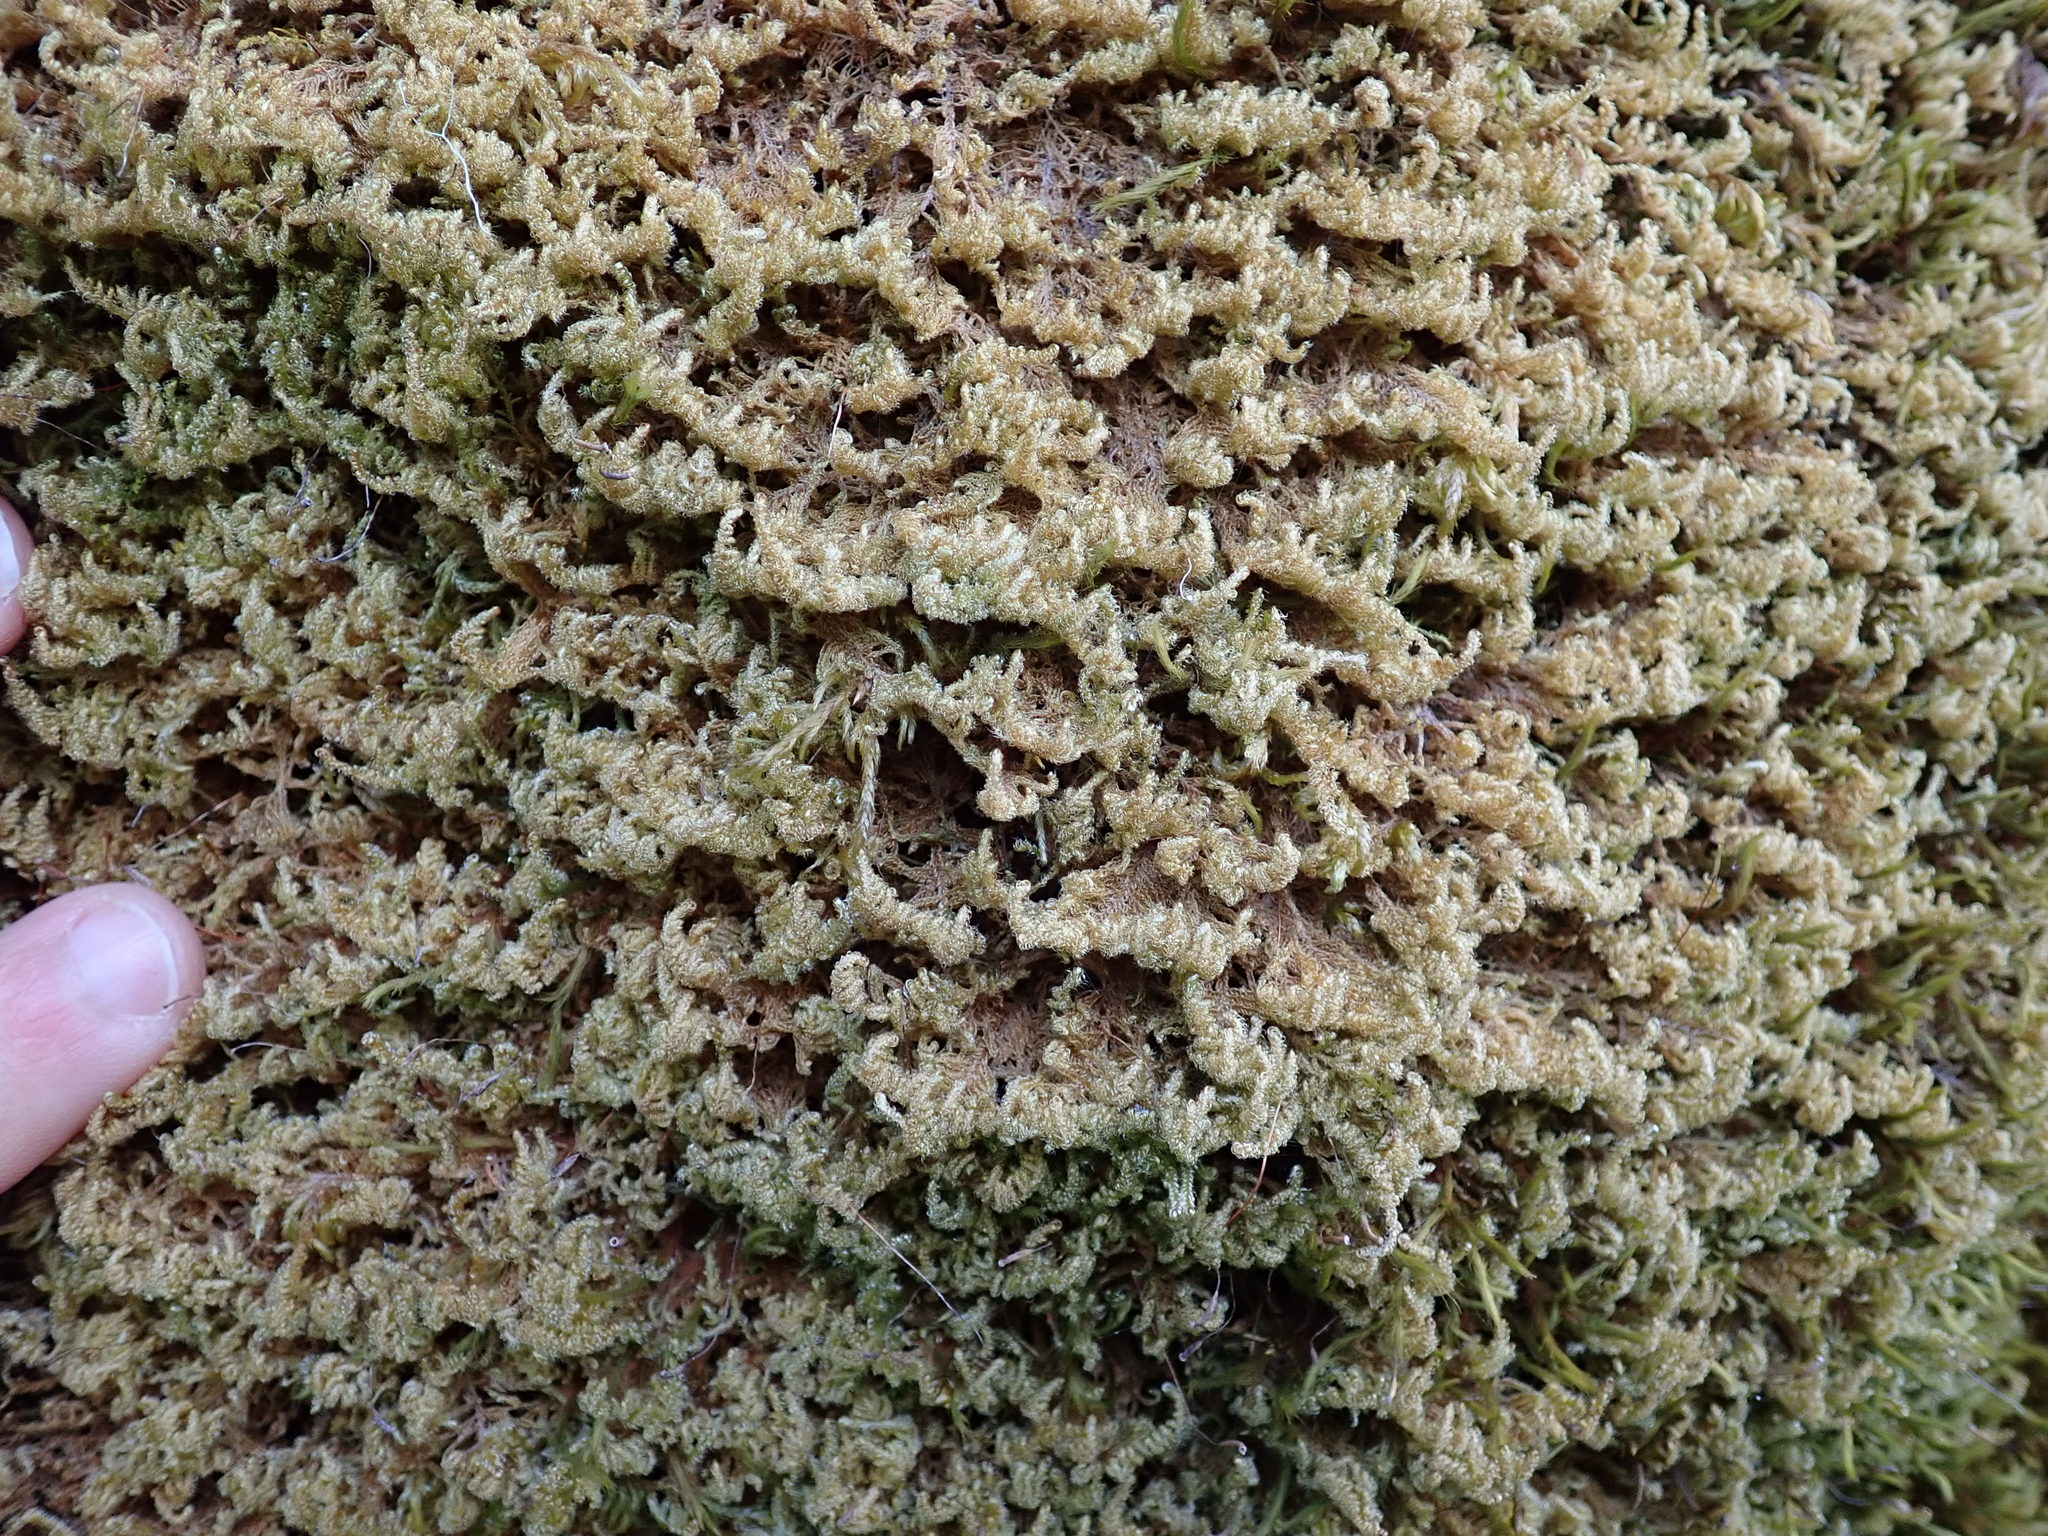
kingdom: Plantae
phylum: Bryophyta
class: Bryopsida
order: Hypnales
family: Stereodontaceae
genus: Stereodon
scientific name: Stereodon subimponens
